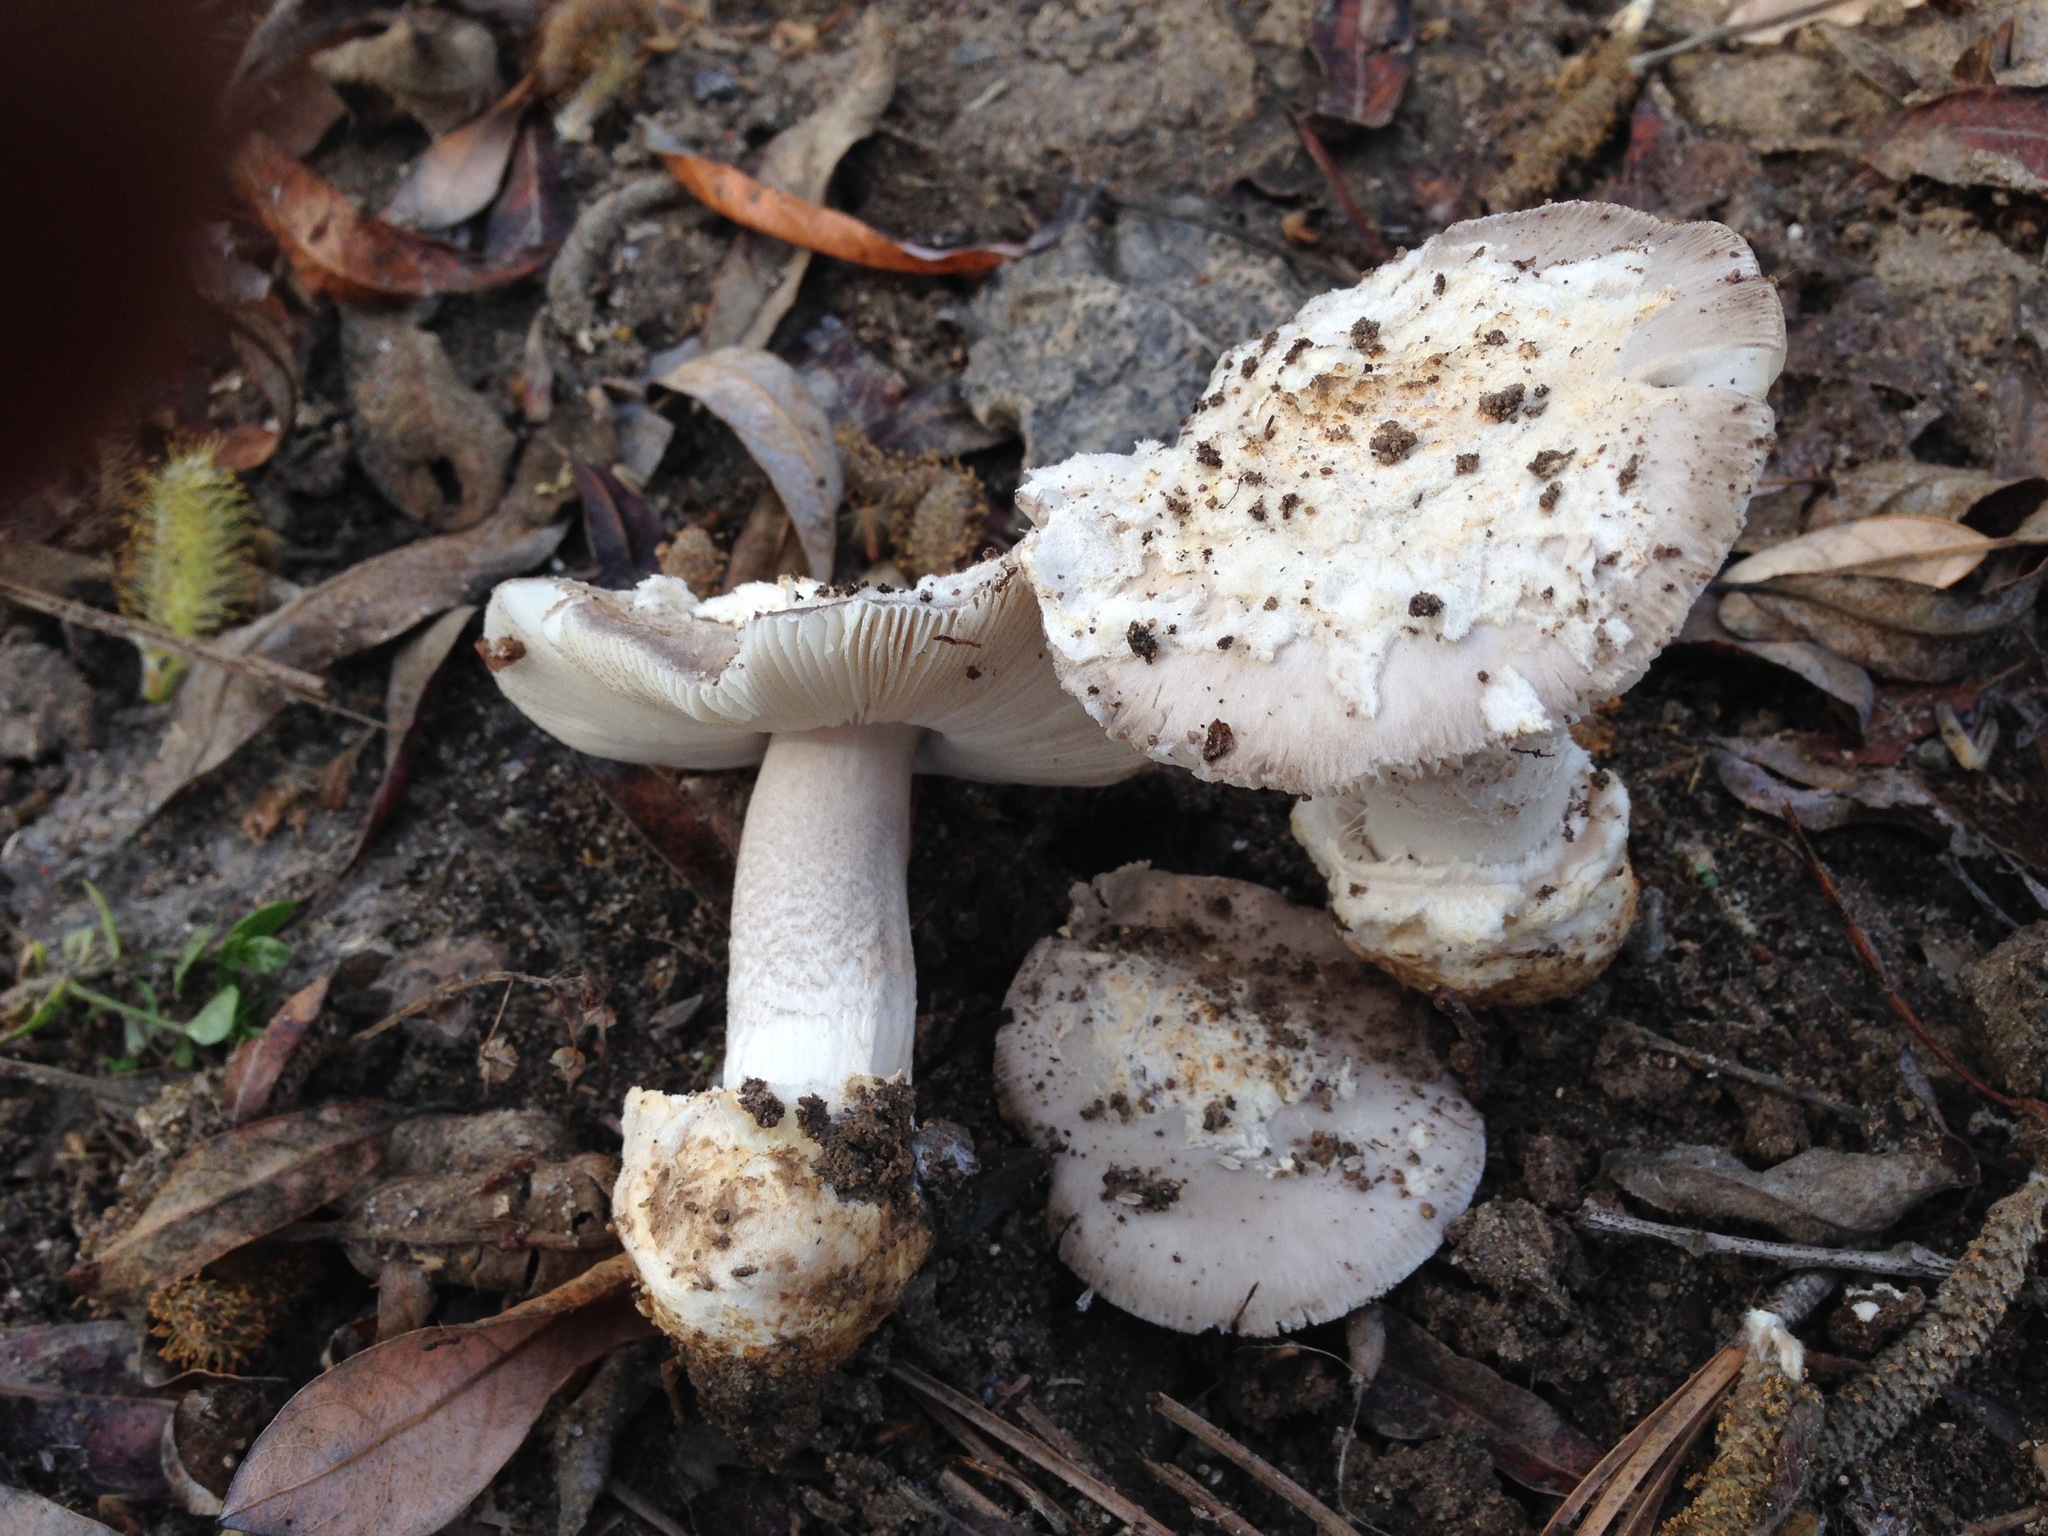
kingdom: Fungi
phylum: Basidiomycota
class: Agaricomycetes
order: Agaricales
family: Amanitaceae
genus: Amanita
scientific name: Amanita protecta
